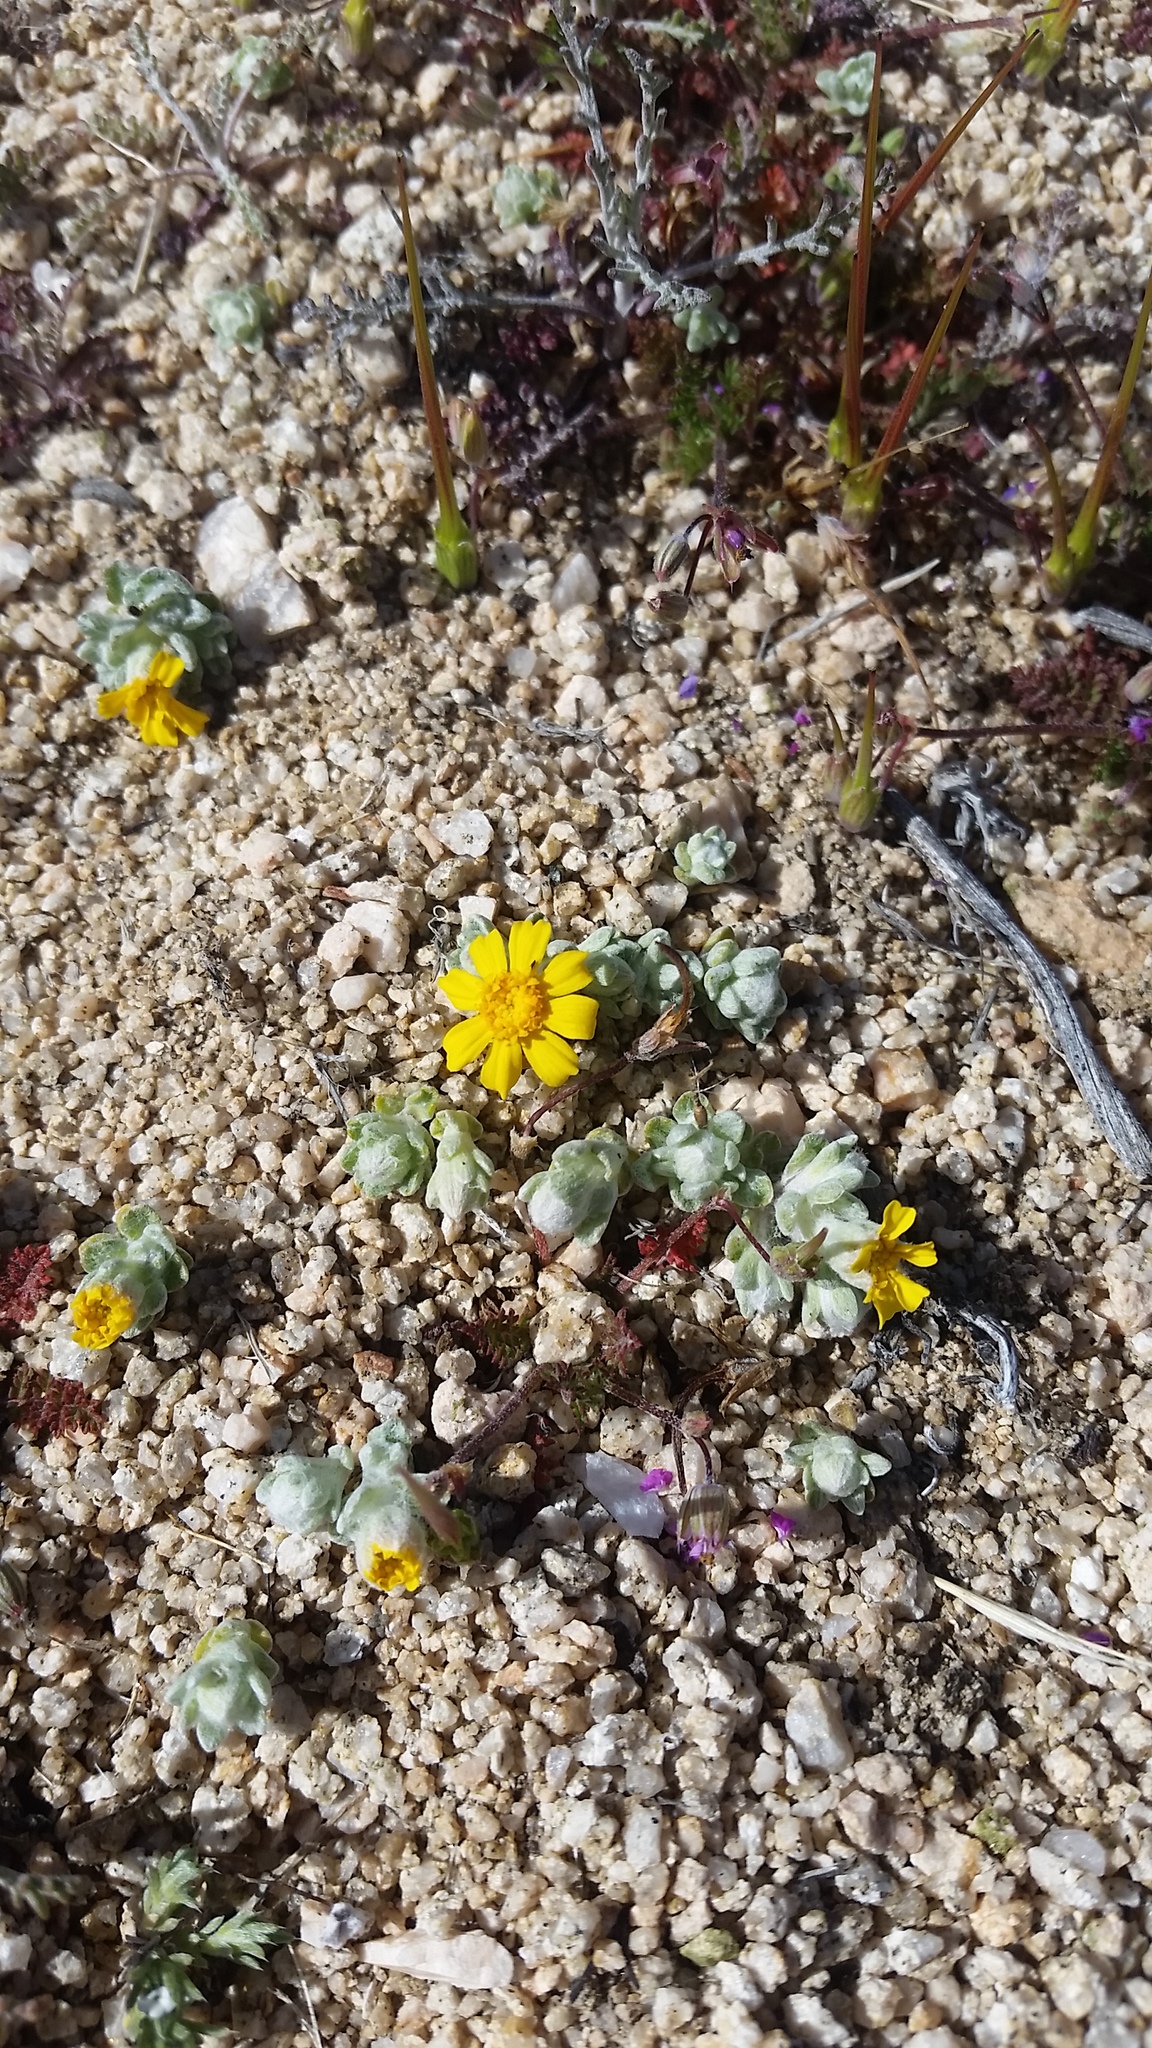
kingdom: Plantae
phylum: Tracheophyta
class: Magnoliopsida
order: Asterales
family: Asteraceae
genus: Eriophyllum
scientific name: Eriophyllum wallacei
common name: Wallace's woolly daisy
